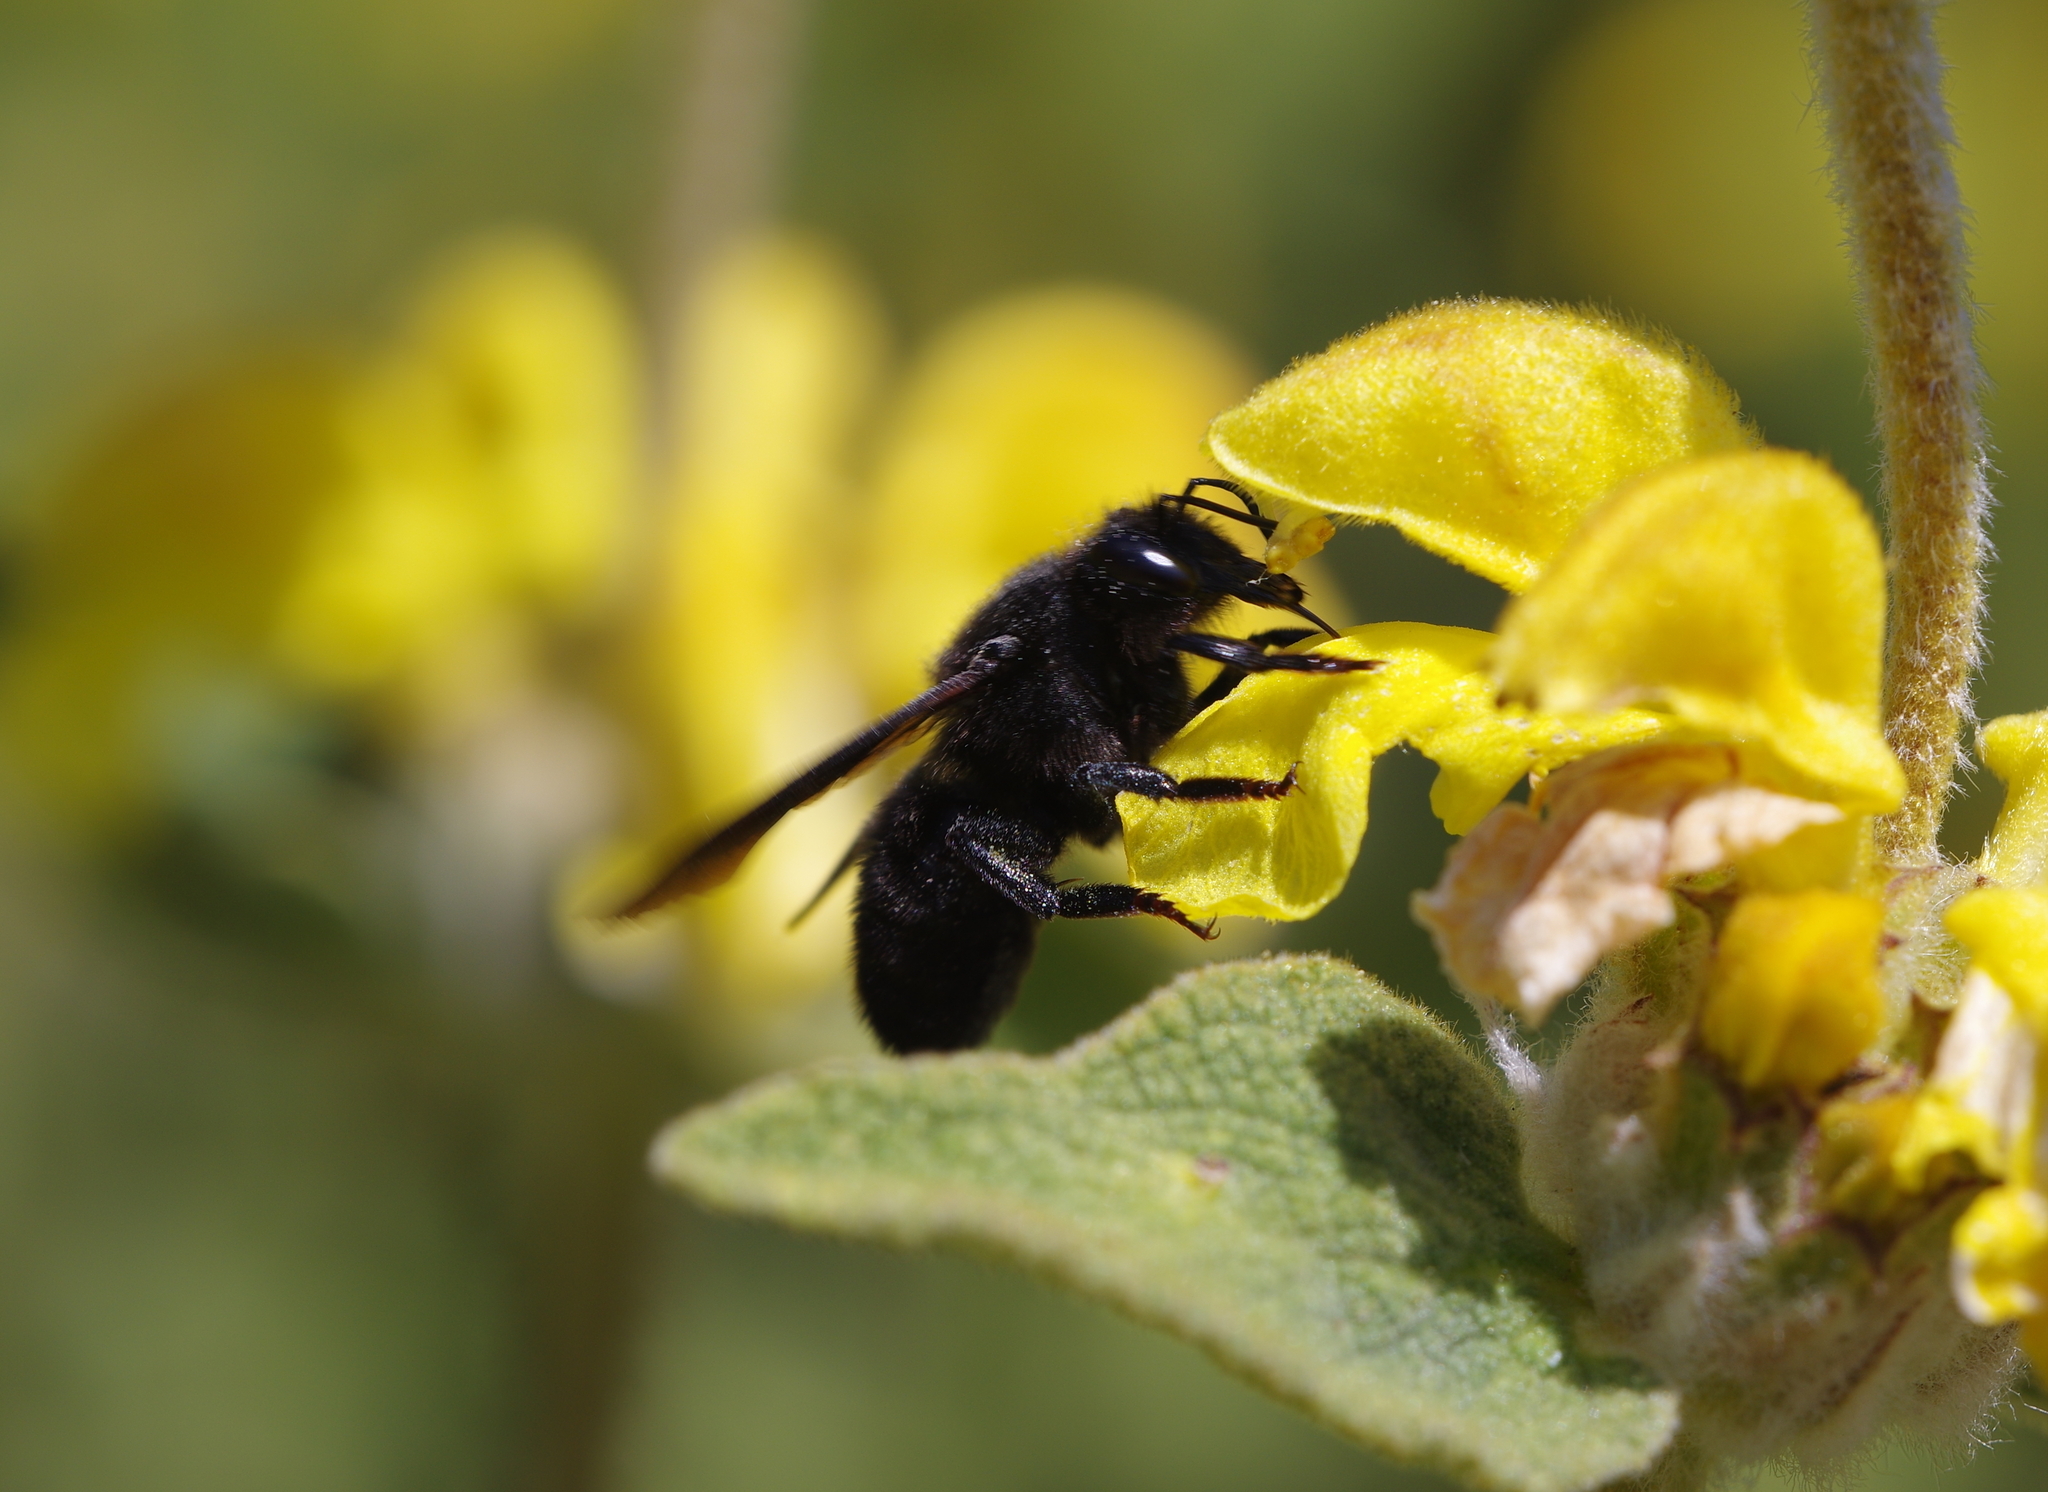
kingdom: Animalia
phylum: Arthropoda
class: Insecta
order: Hymenoptera
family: Megachilidae
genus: Megachile
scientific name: Megachile parietina
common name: Black mud bee
